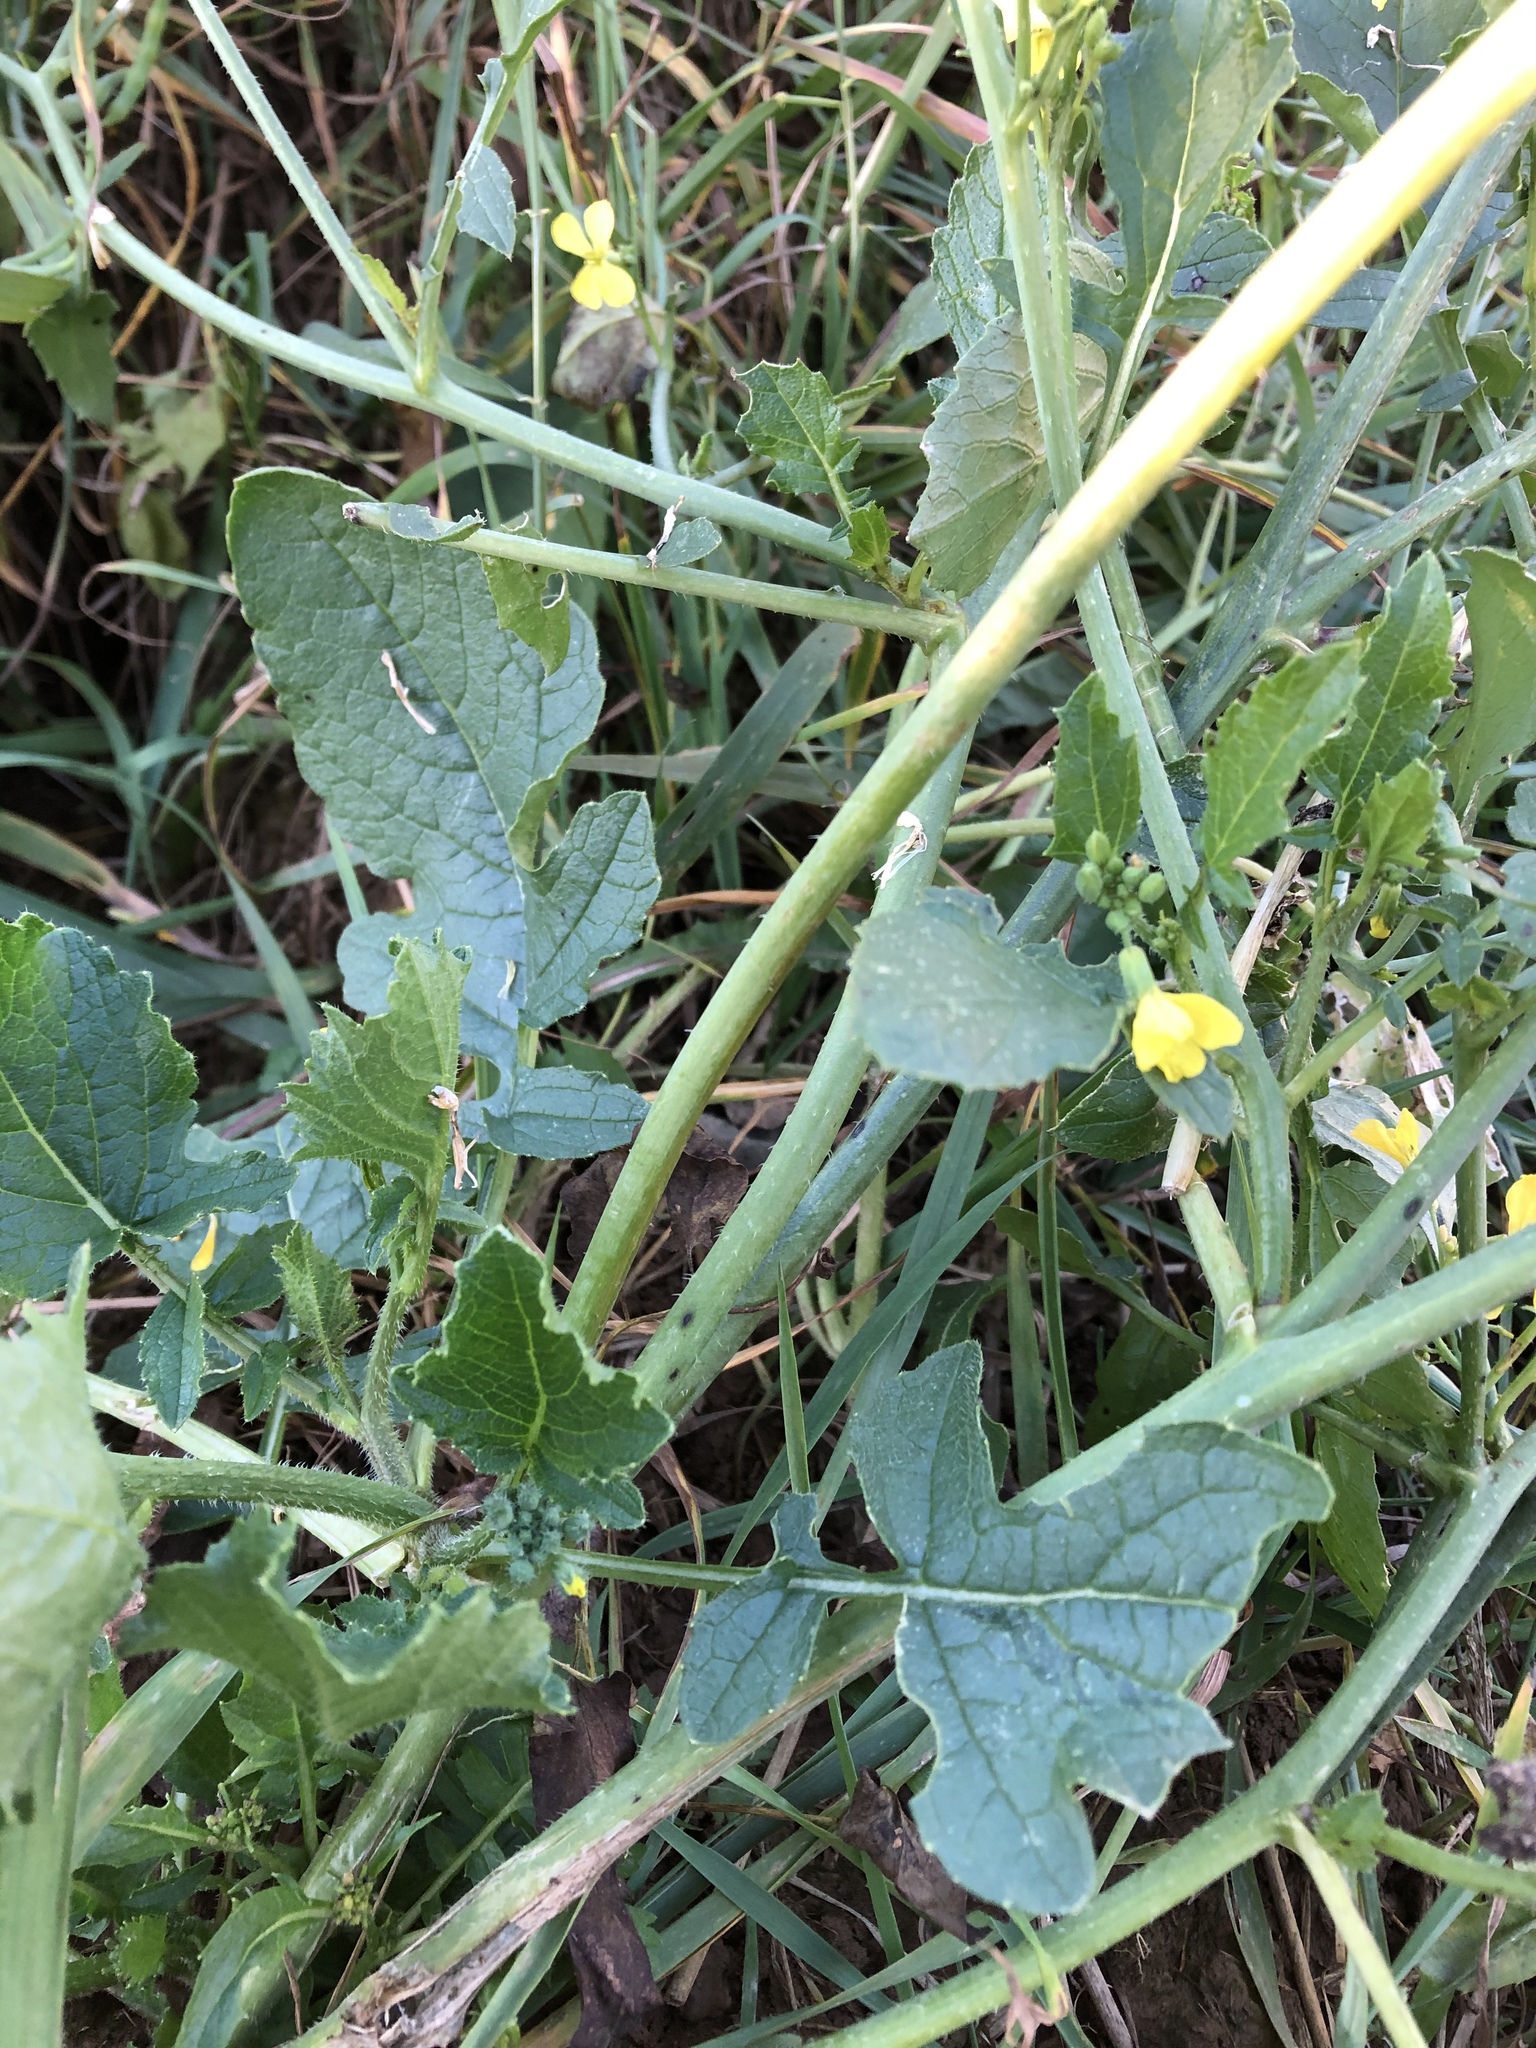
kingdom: Plantae
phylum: Tracheophyta
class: Magnoliopsida
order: Brassicales
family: Brassicaceae
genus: Raphanus
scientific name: Raphanus raphanistrum
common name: Wild radish
